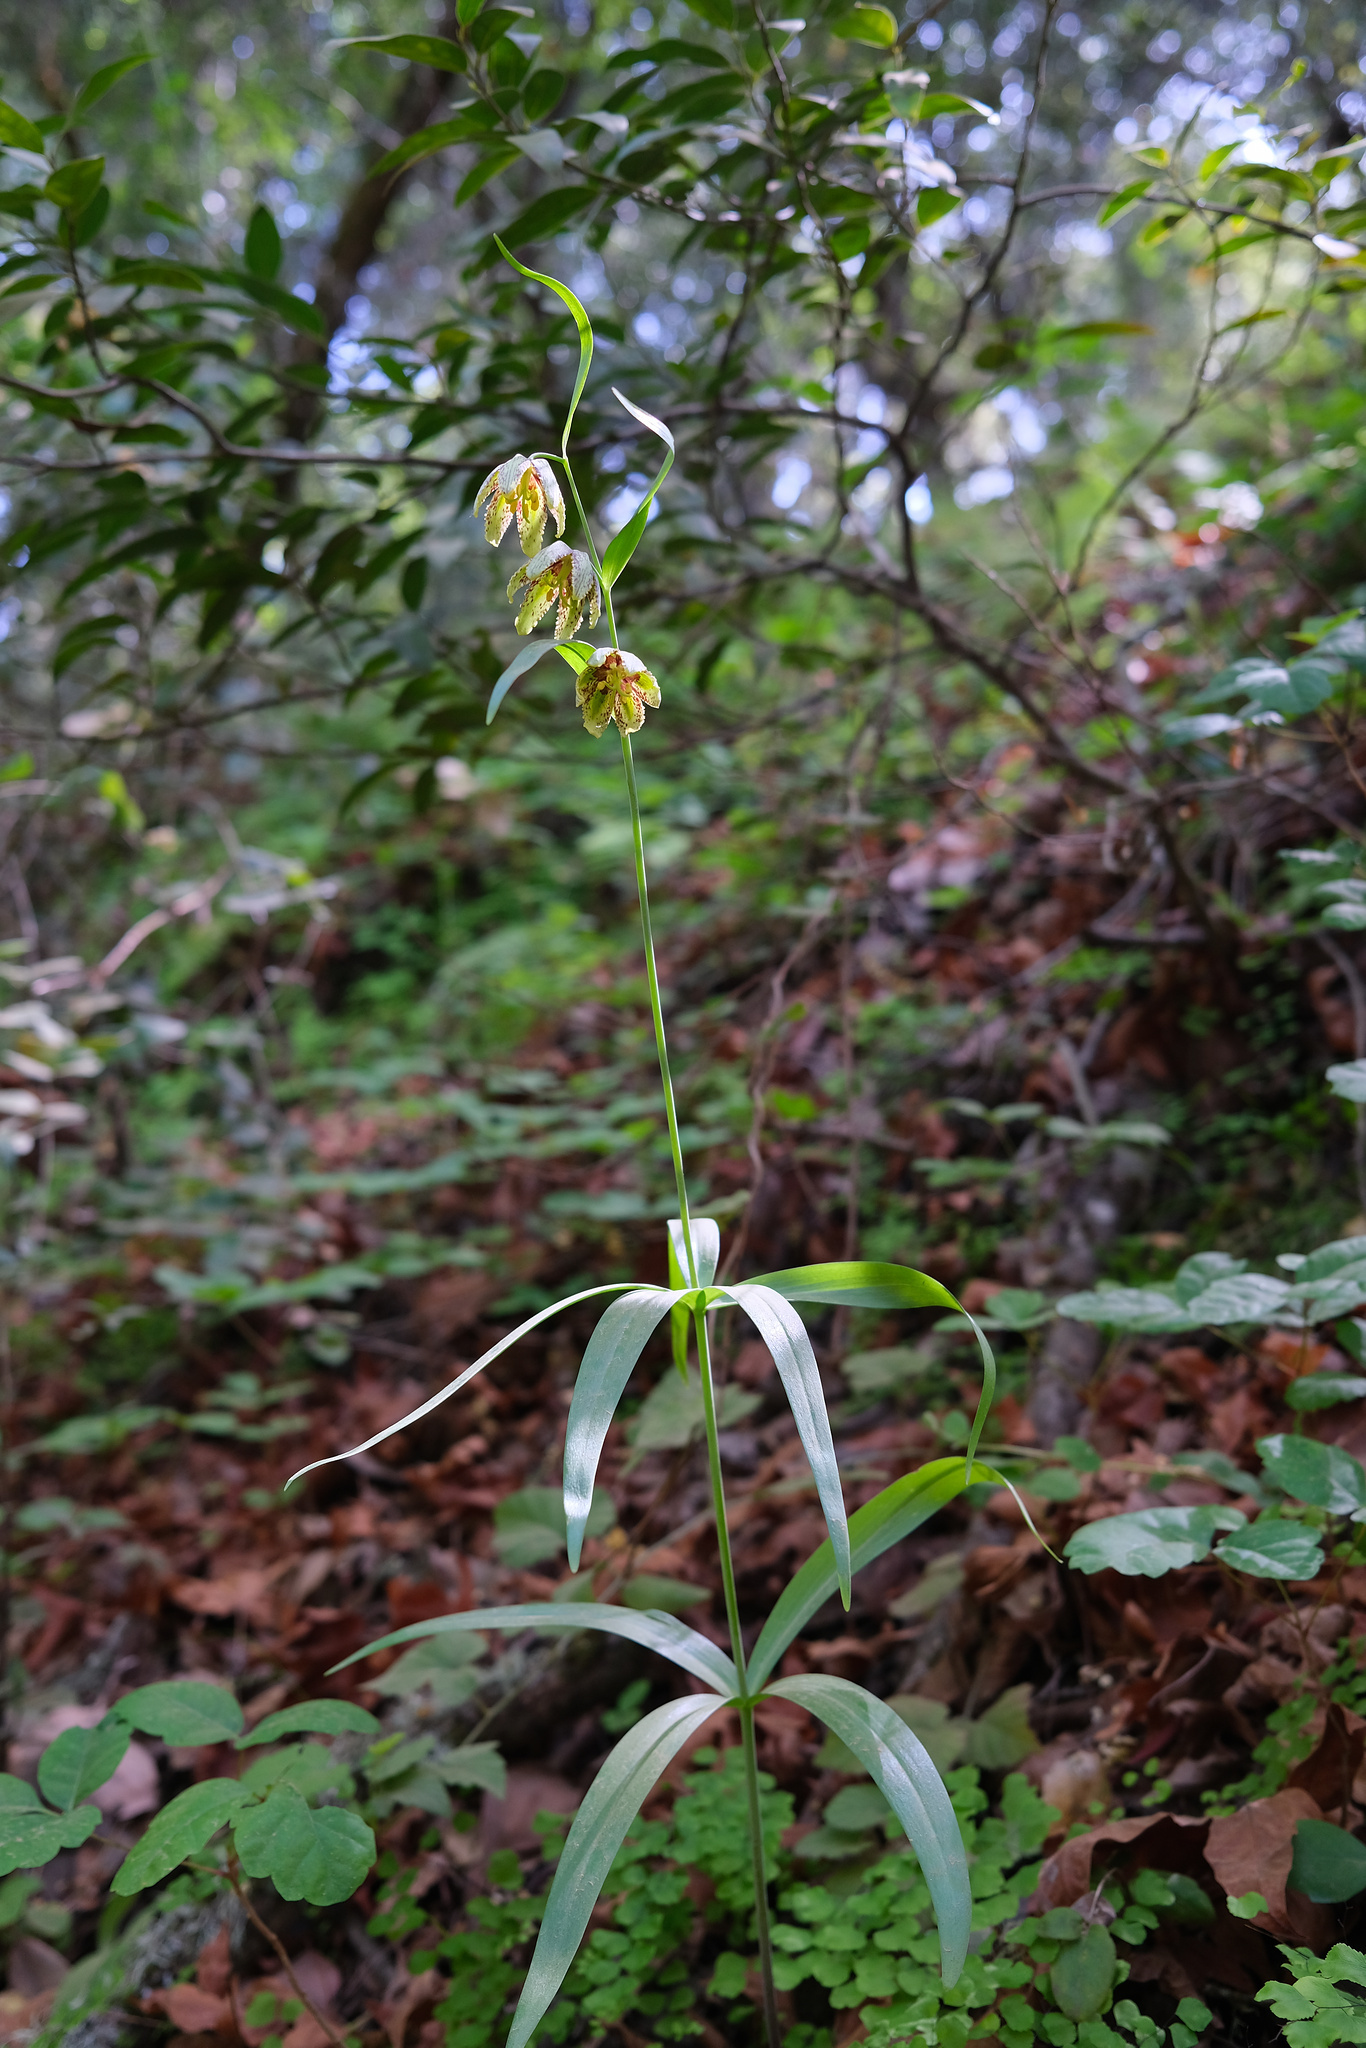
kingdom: Plantae
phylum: Tracheophyta
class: Liliopsida
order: Liliales
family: Liliaceae
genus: Fritillaria
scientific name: Fritillaria affinis
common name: Ojai fritillary
